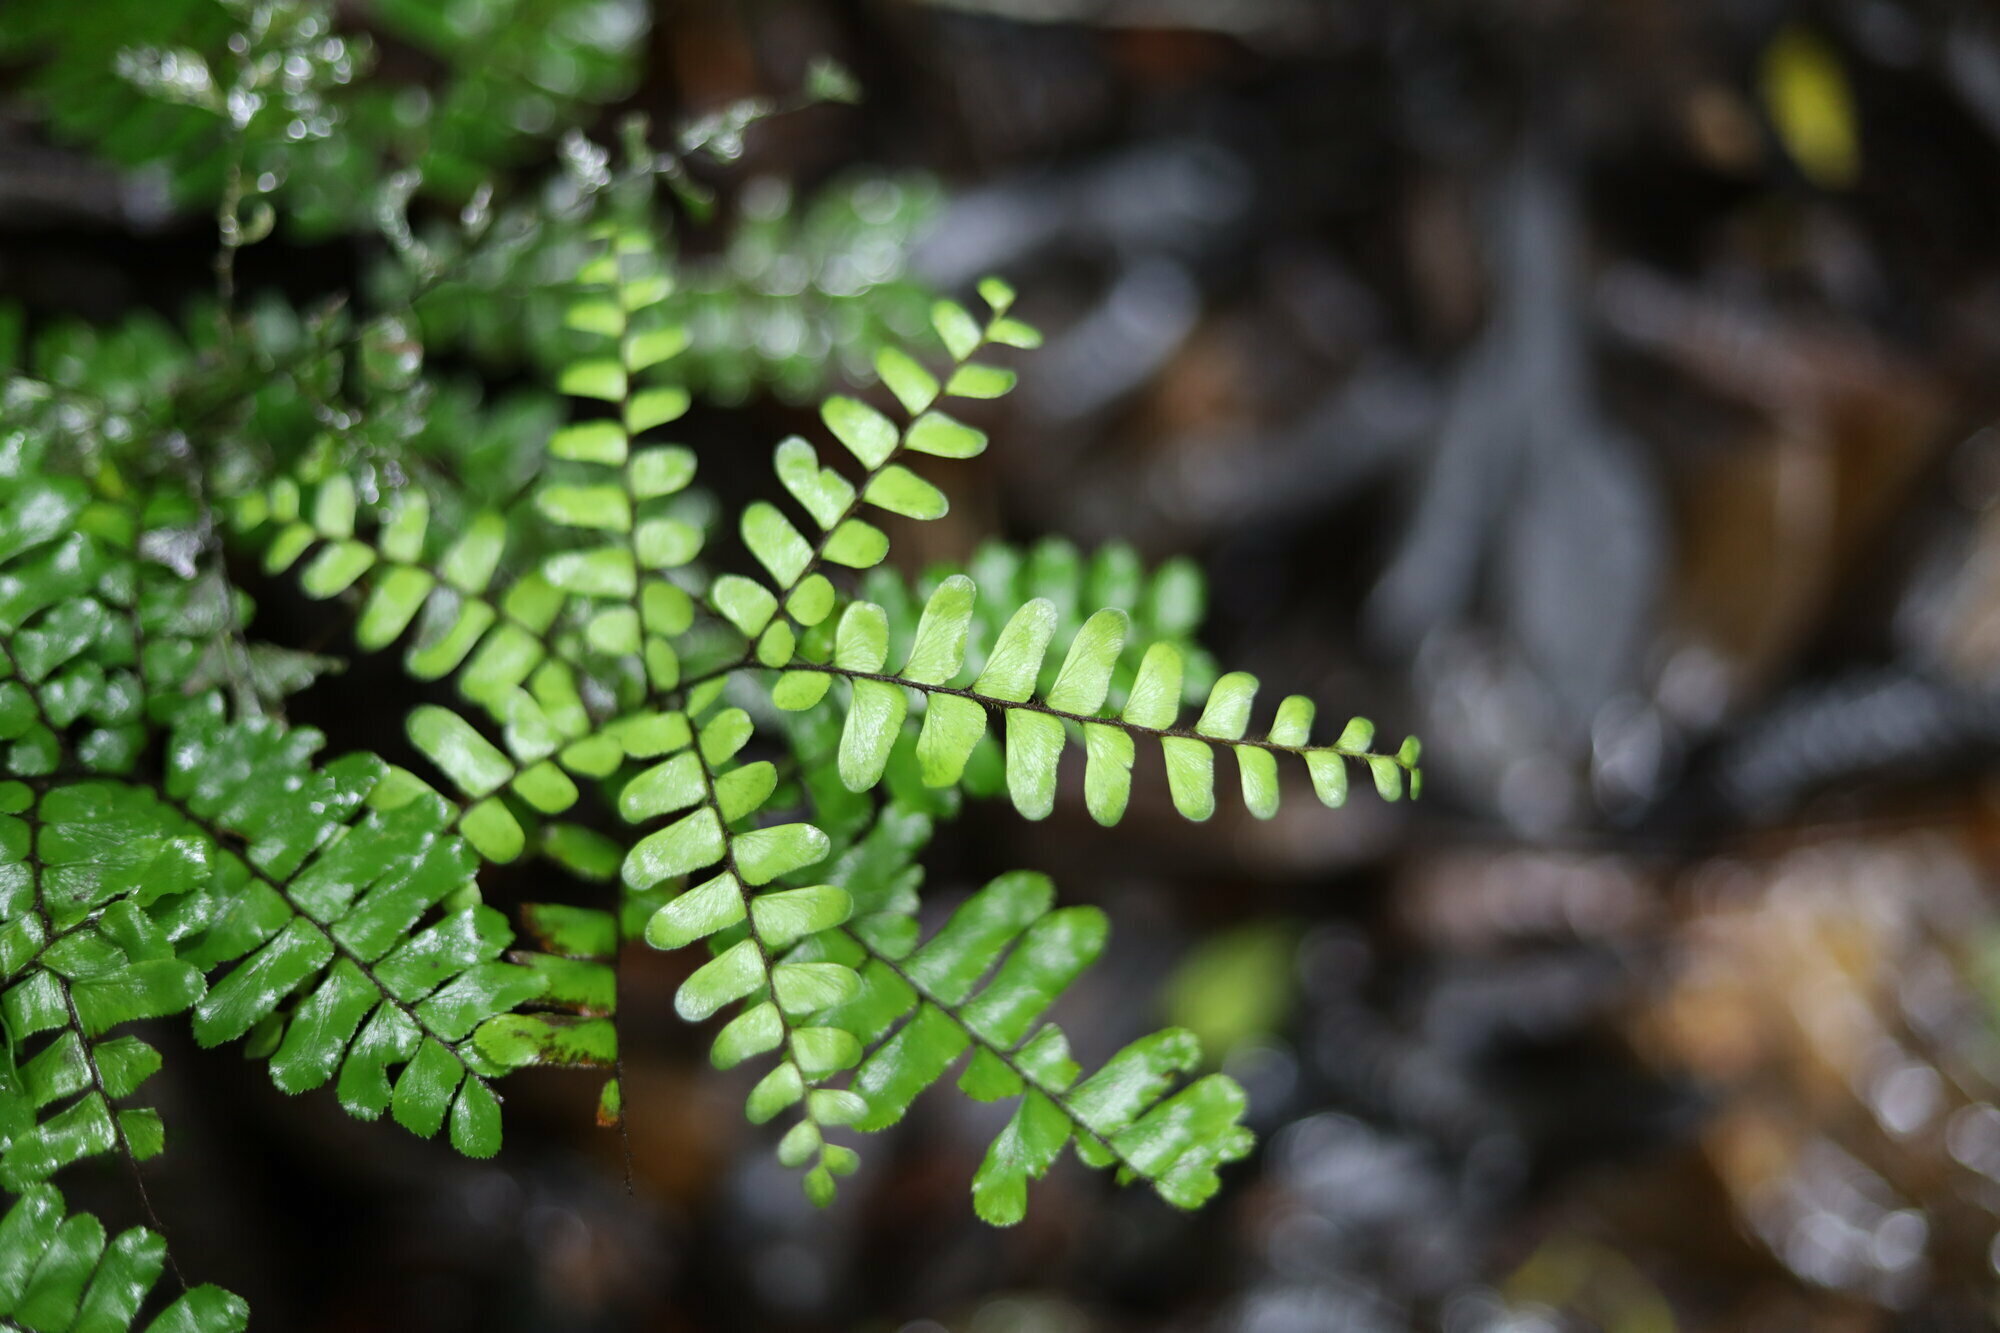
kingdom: Plantae
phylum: Tracheophyta
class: Polypodiopsida
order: Polypodiales
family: Pteridaceae
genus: Adiantum
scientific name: Adiantum humile
